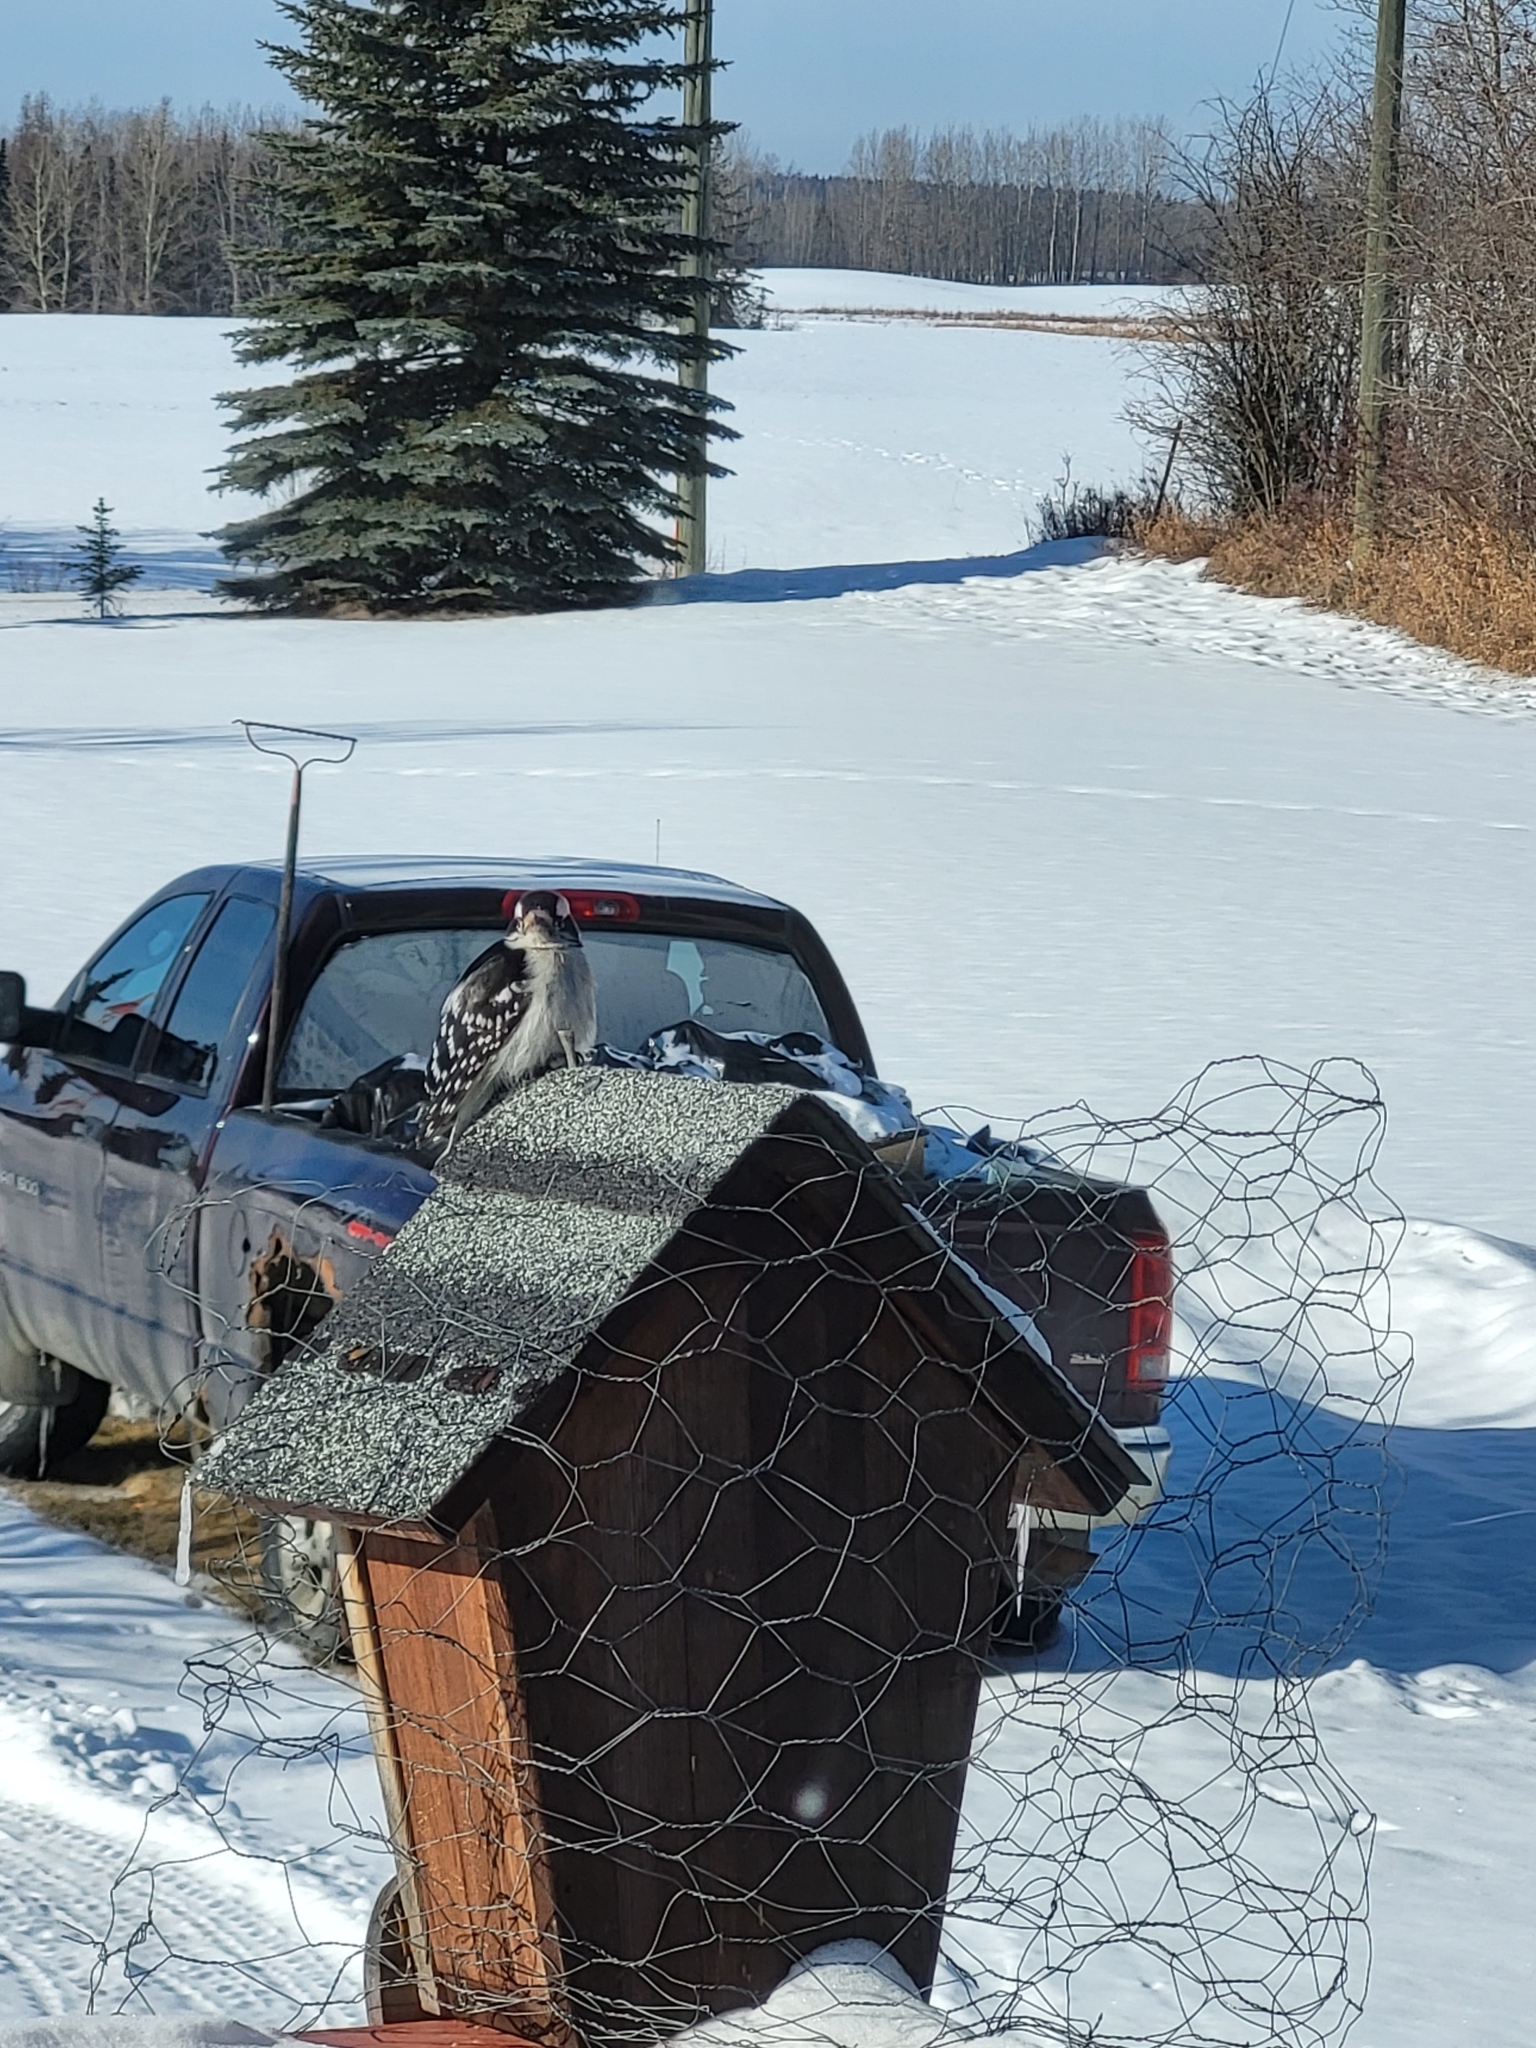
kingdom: Animalia
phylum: Chordata
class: Aves
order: Piciformes
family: Picidae
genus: Dryobates
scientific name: Dryobates pubescens
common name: Downy woodpecker
